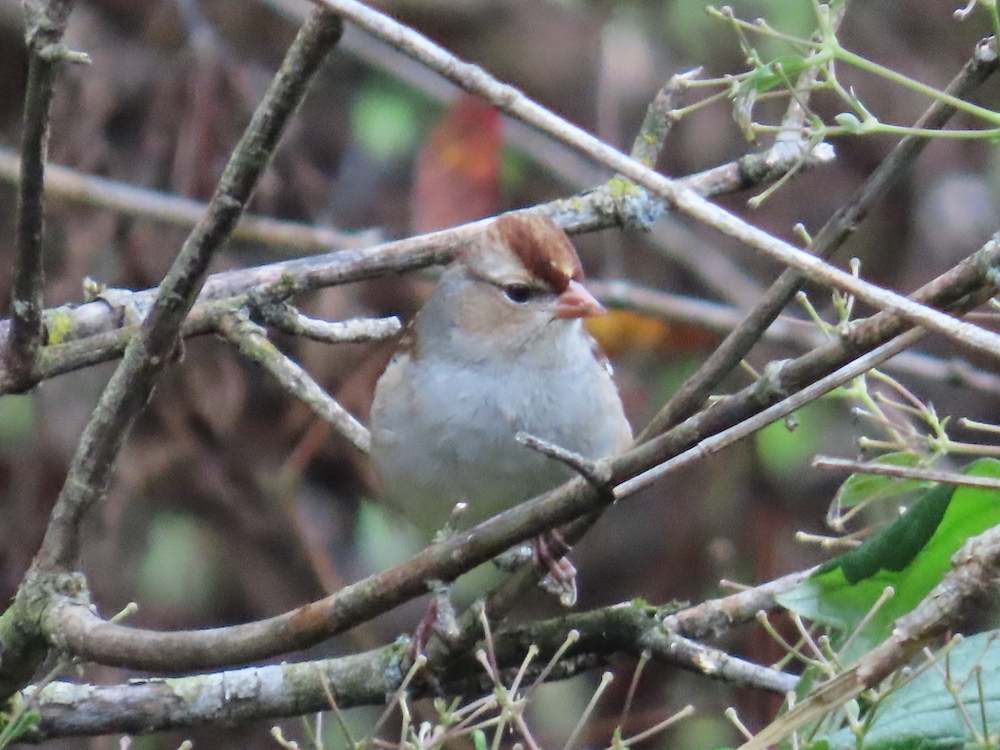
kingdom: Animalia
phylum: Chordata
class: Aves
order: Passeriformes
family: Passerellidae
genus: Zonotrichia
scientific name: Zonotrichia leucophrys
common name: White-crowned sparrow
